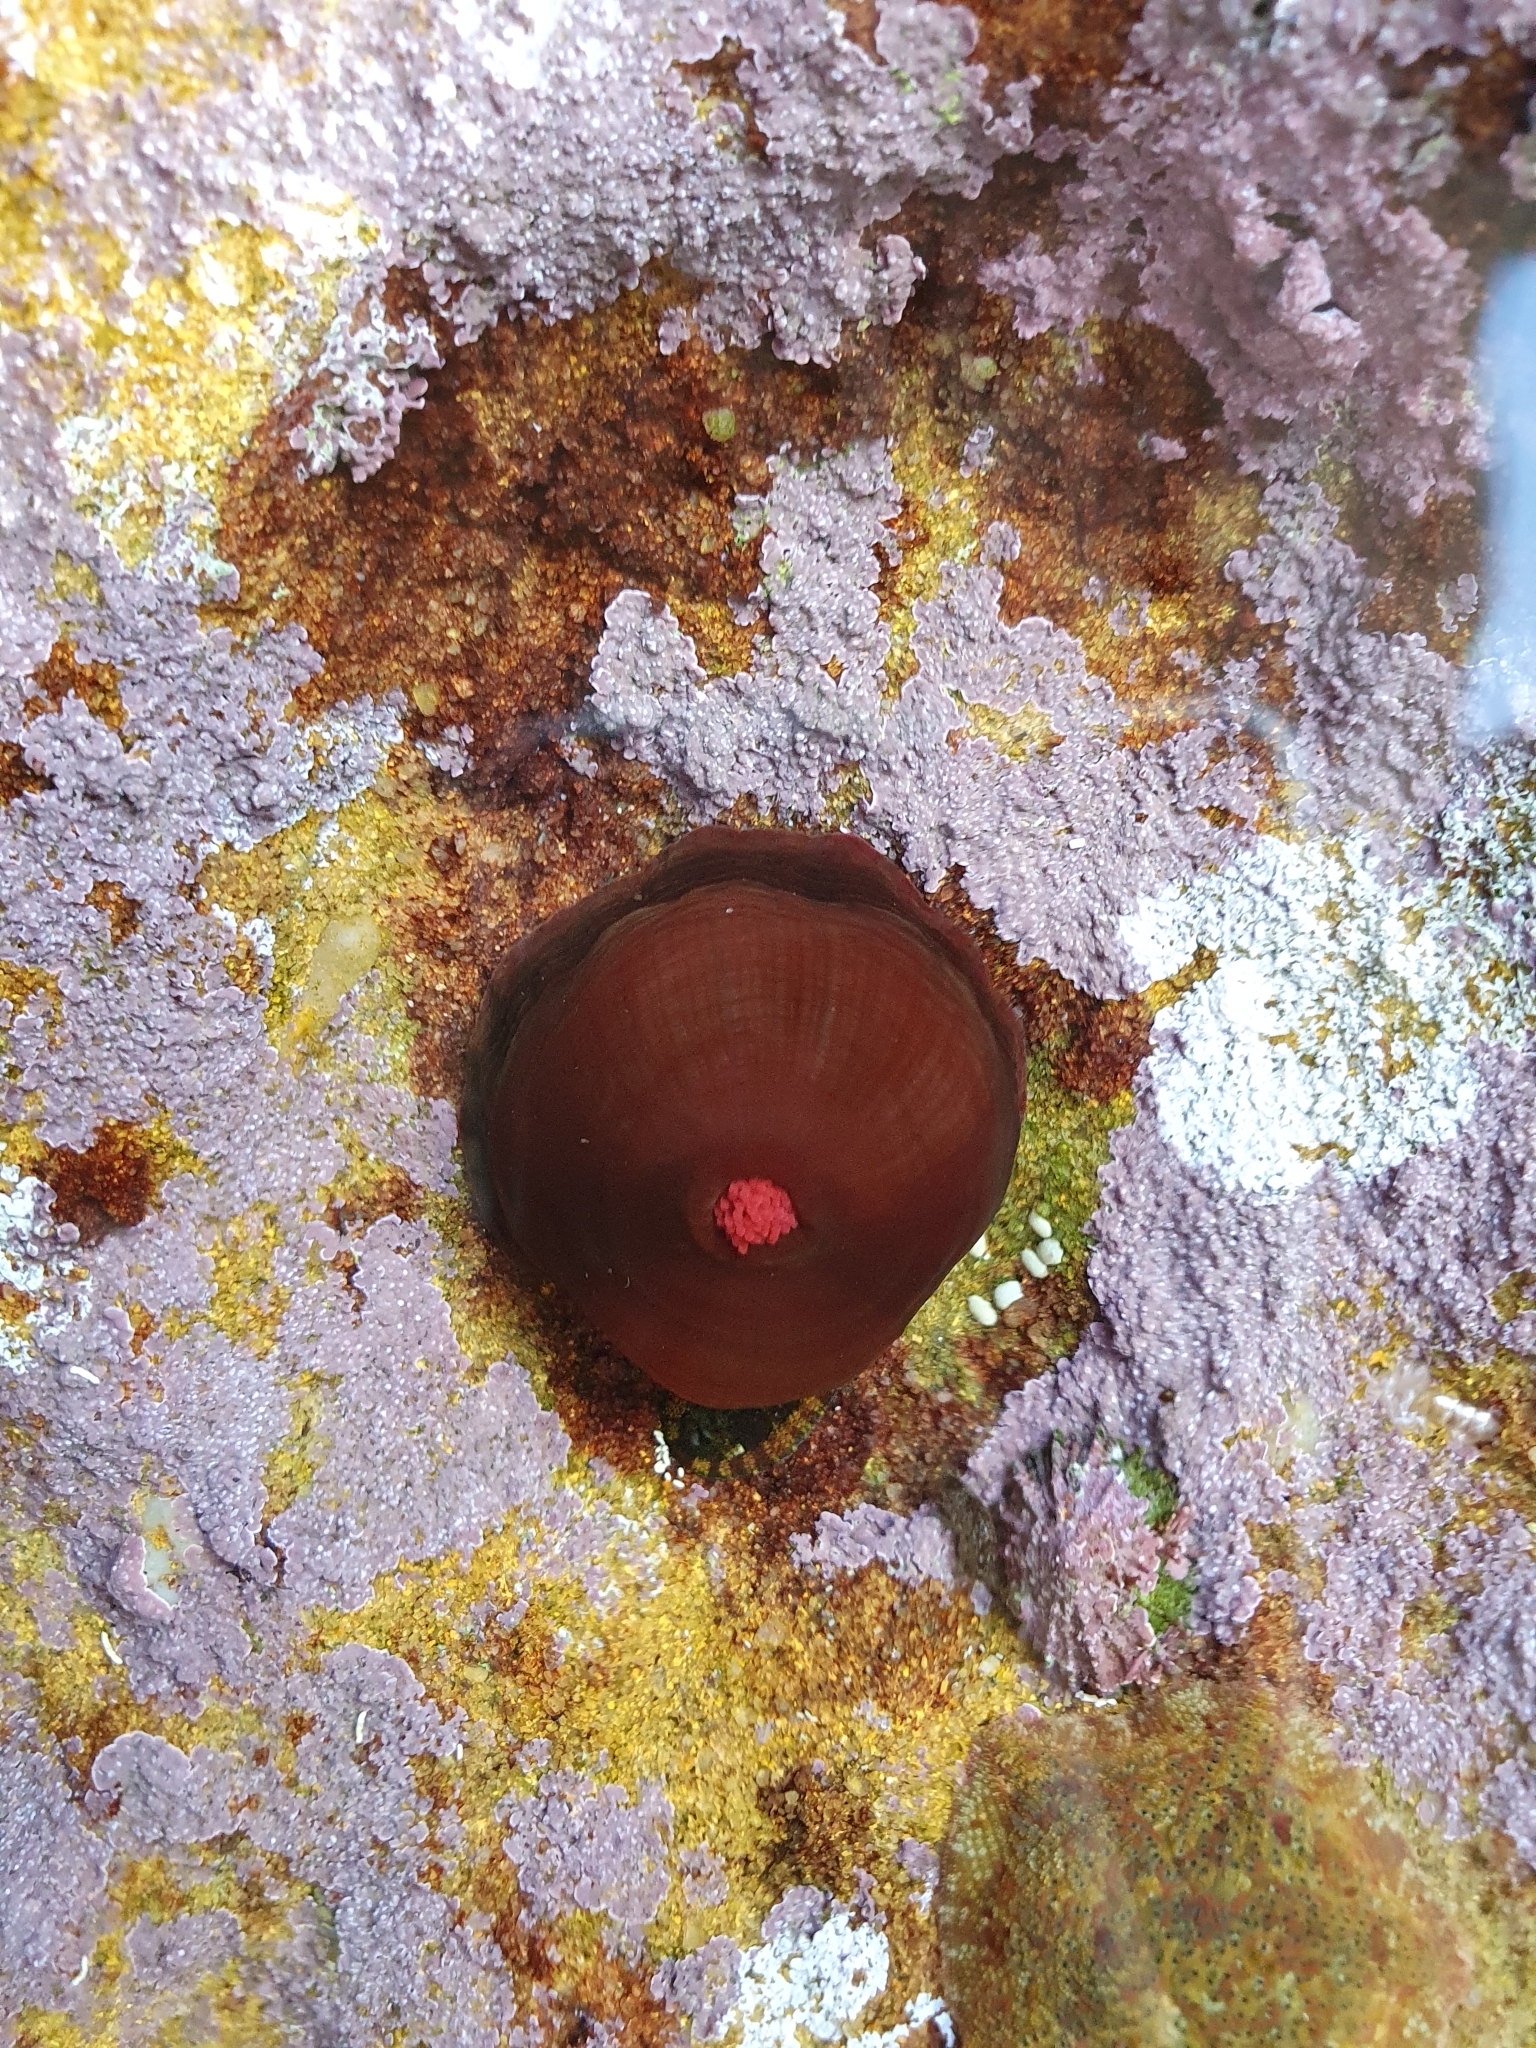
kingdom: Animalia
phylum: Cnidaria
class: Anthozoa
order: Actiniaria
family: Actiniidae
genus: Actinia
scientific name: Actinia tenebrosa
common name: Waratah anemone
